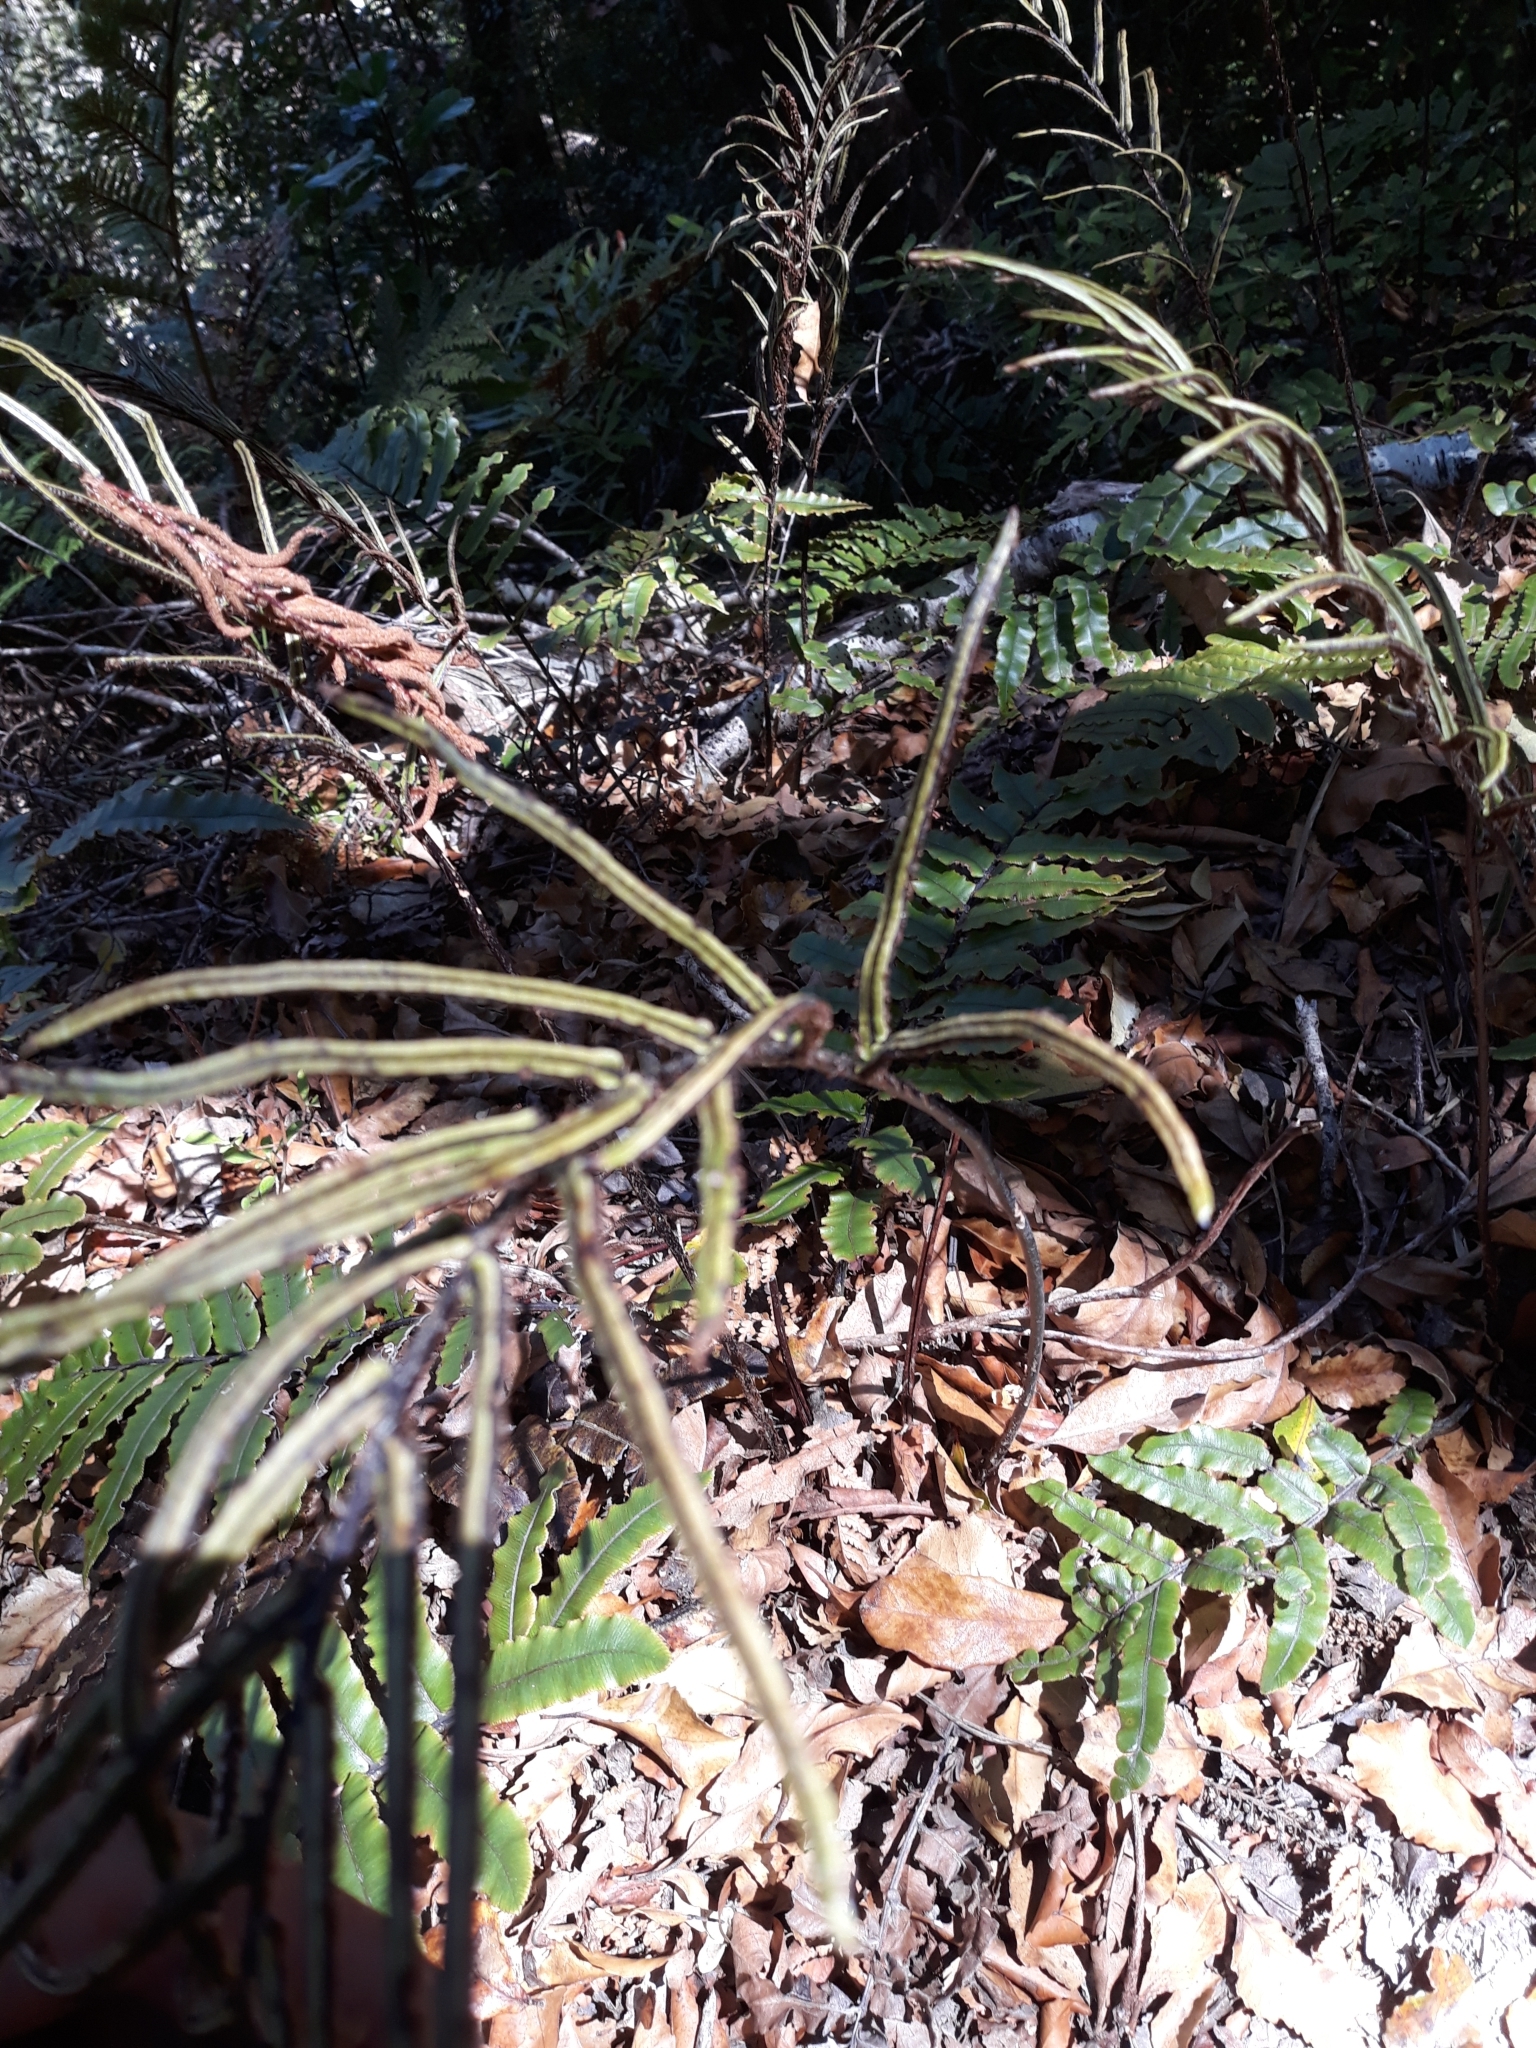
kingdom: Plantae
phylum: Tracheophyta
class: Polypodiopsida
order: Polypodiales
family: Blechnaceae
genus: Parablechnum
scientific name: Parablechnum procerum
